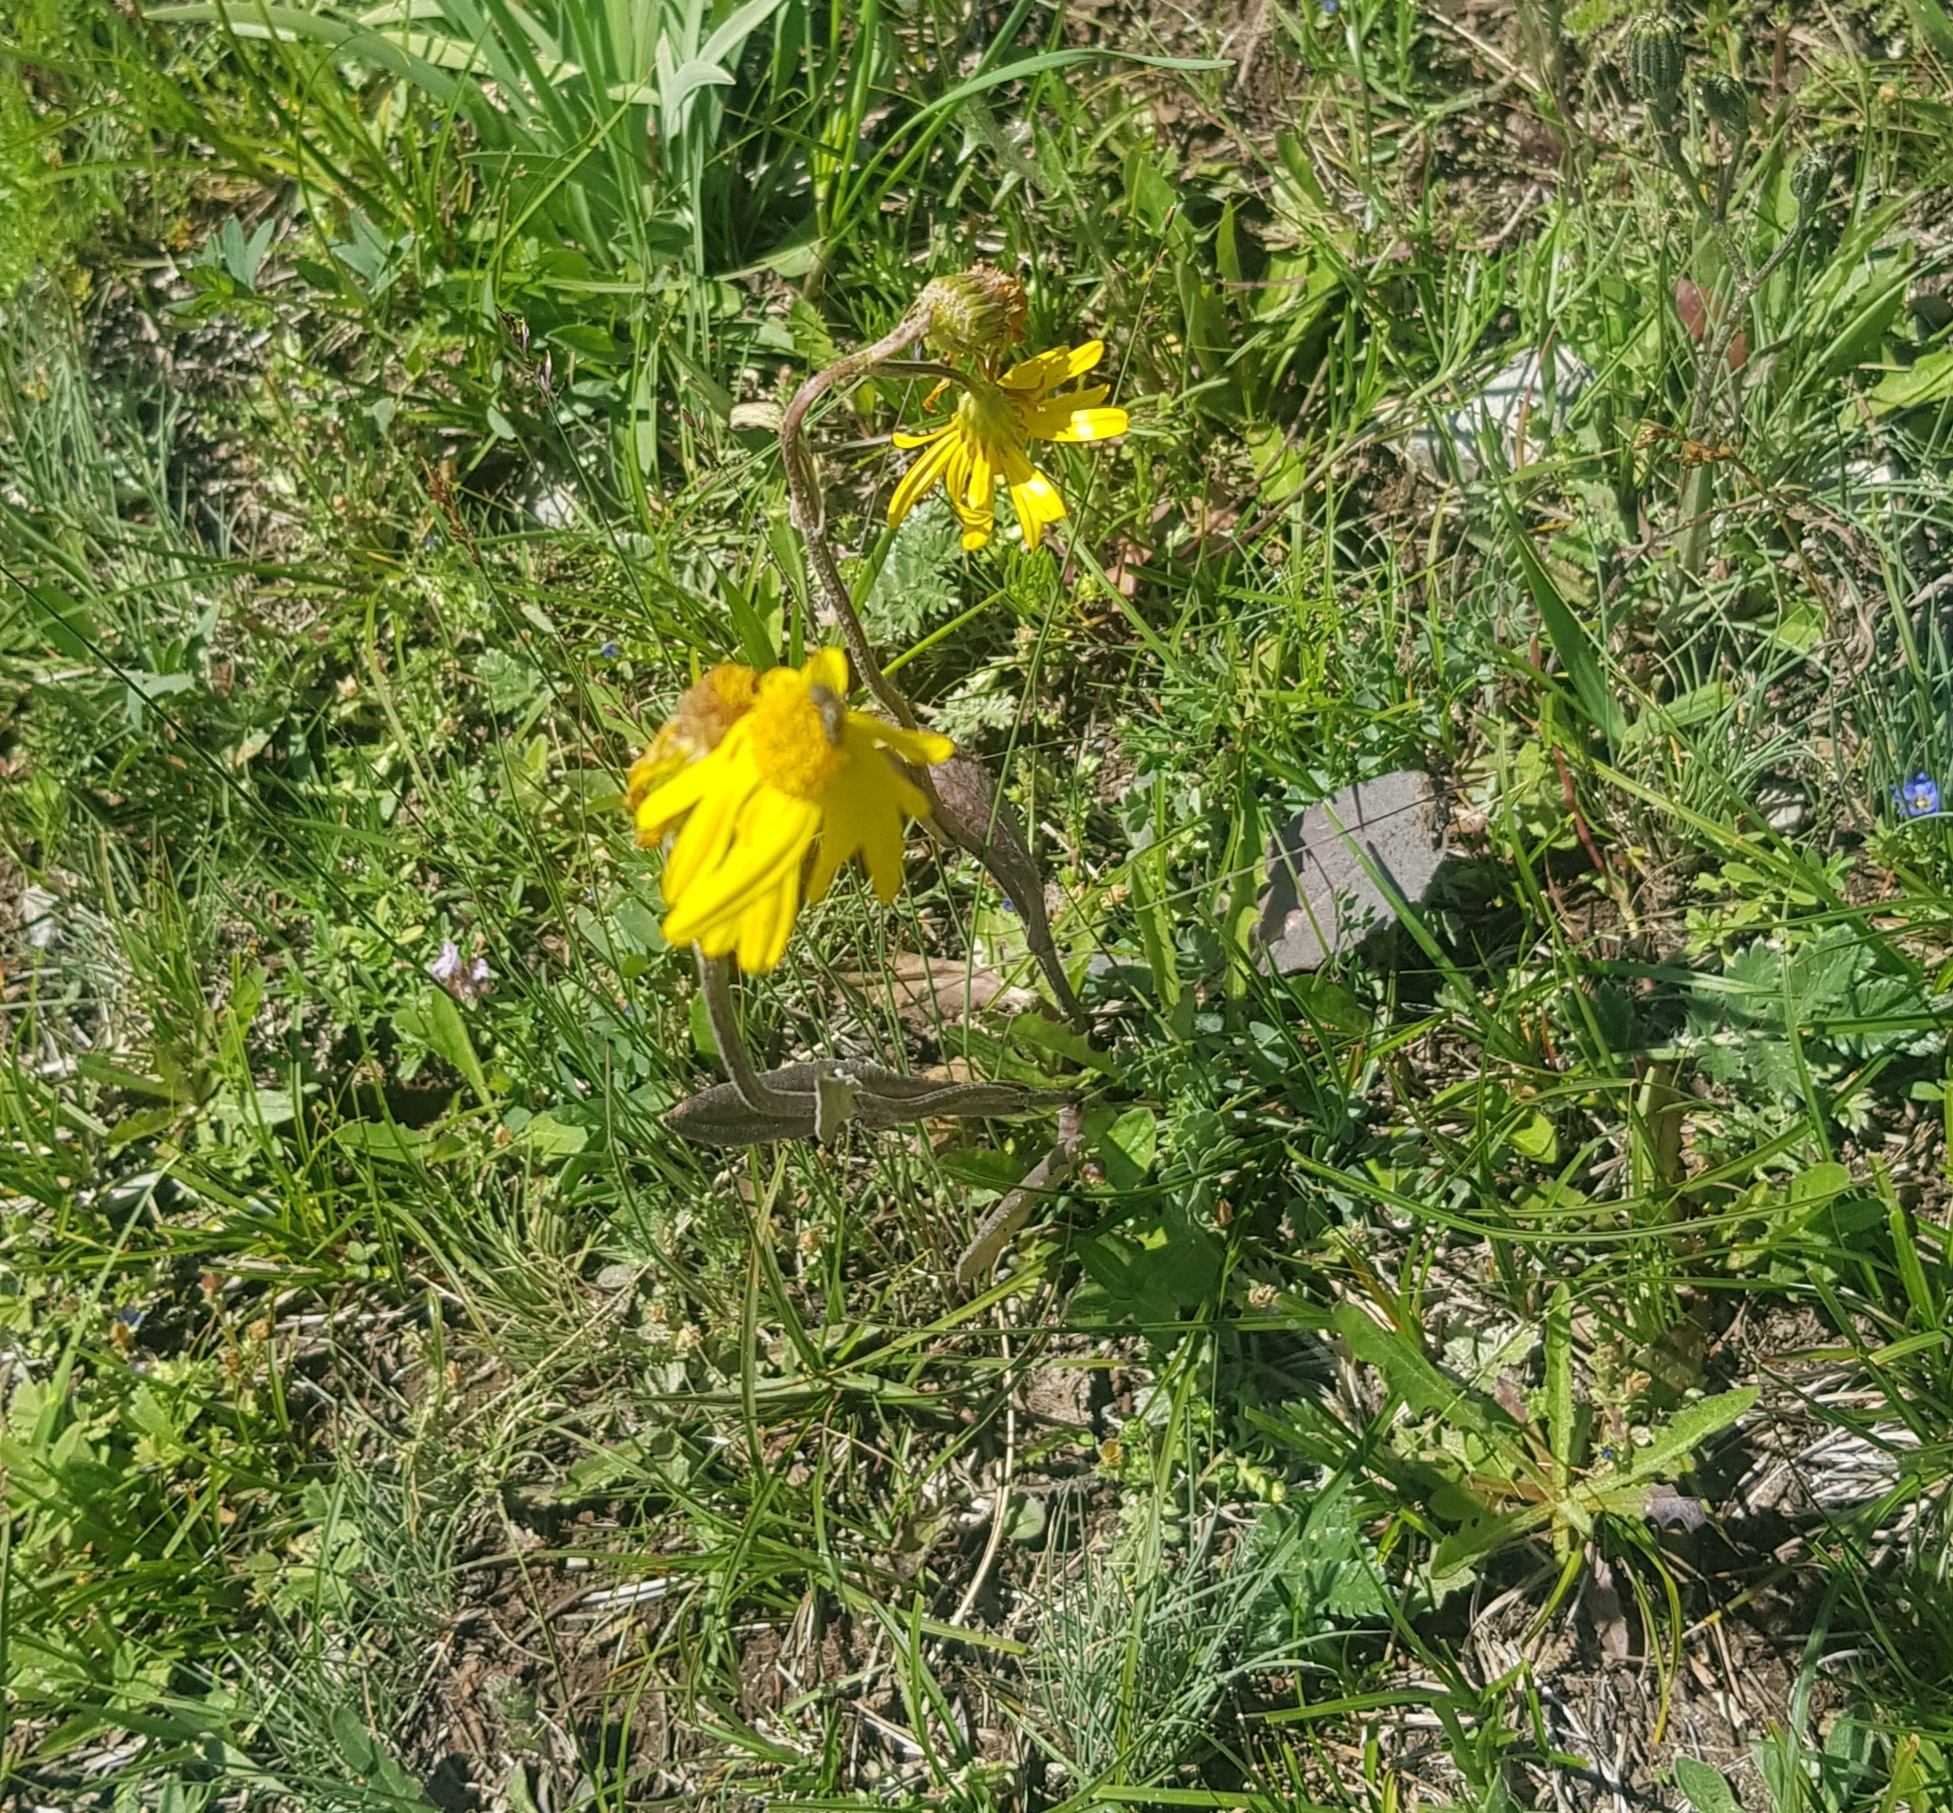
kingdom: Plantae
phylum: Tracheophyta
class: Magnoliopsida
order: Asterales
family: Asteraceae
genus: Tephroseris
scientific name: Tephroseris integrifolia
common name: Field fleawort
